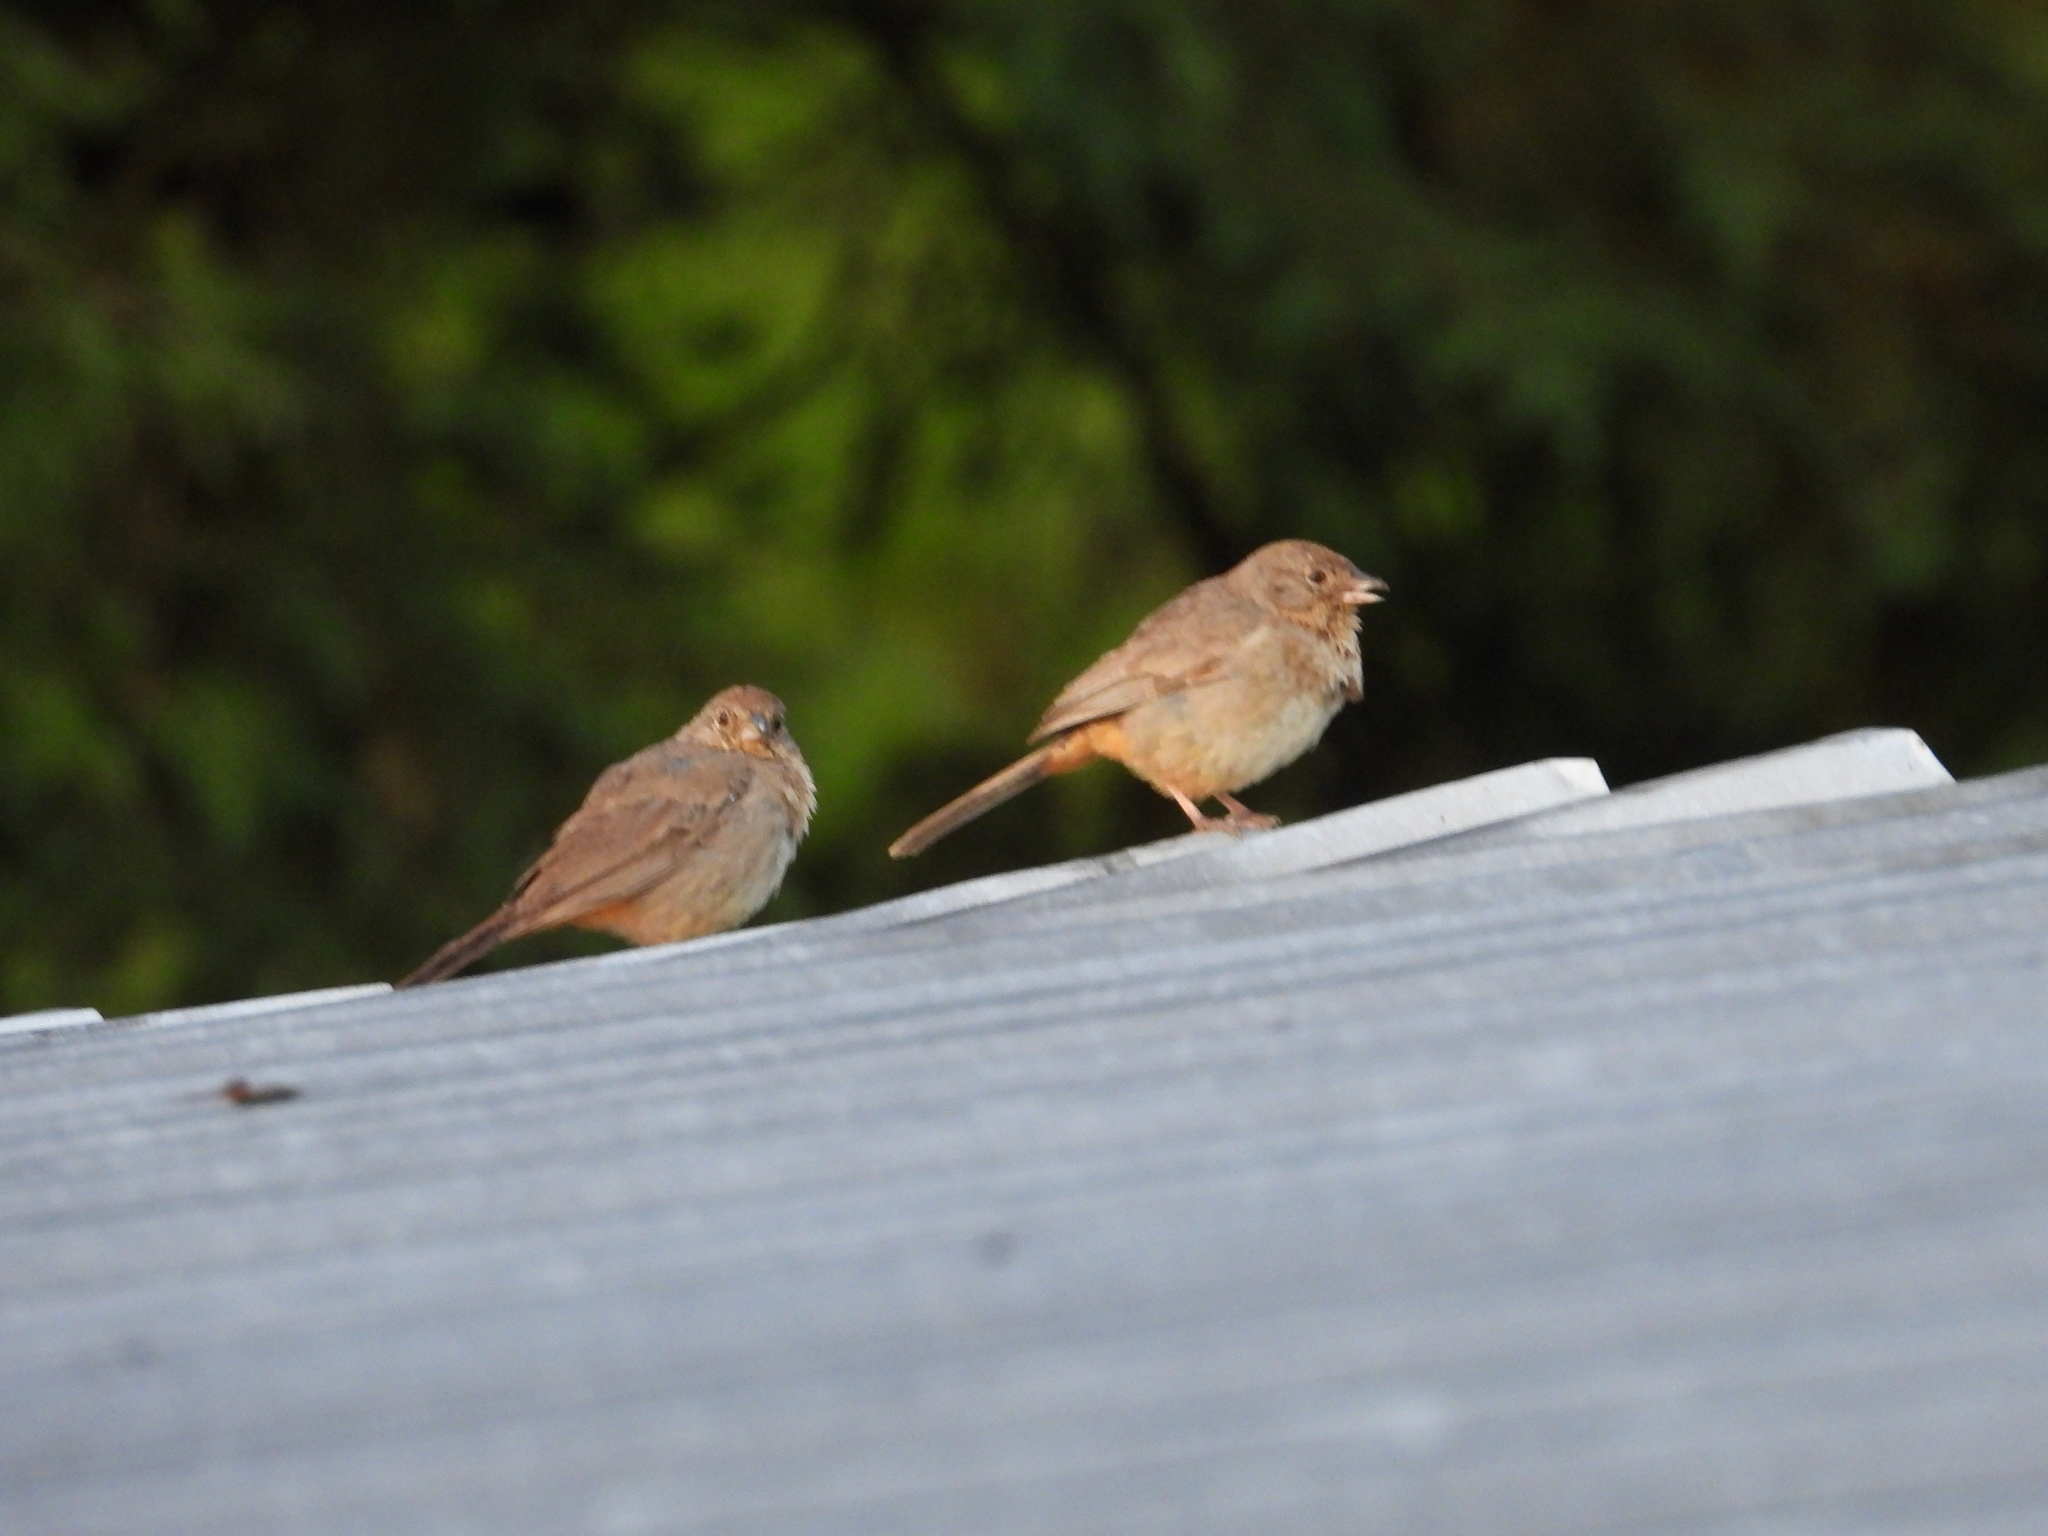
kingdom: Animalia
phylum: Chordata
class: Aves
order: Passeriformes
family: Passerellidae
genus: Melozone
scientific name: Melozone fusca
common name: Canyon towhee
